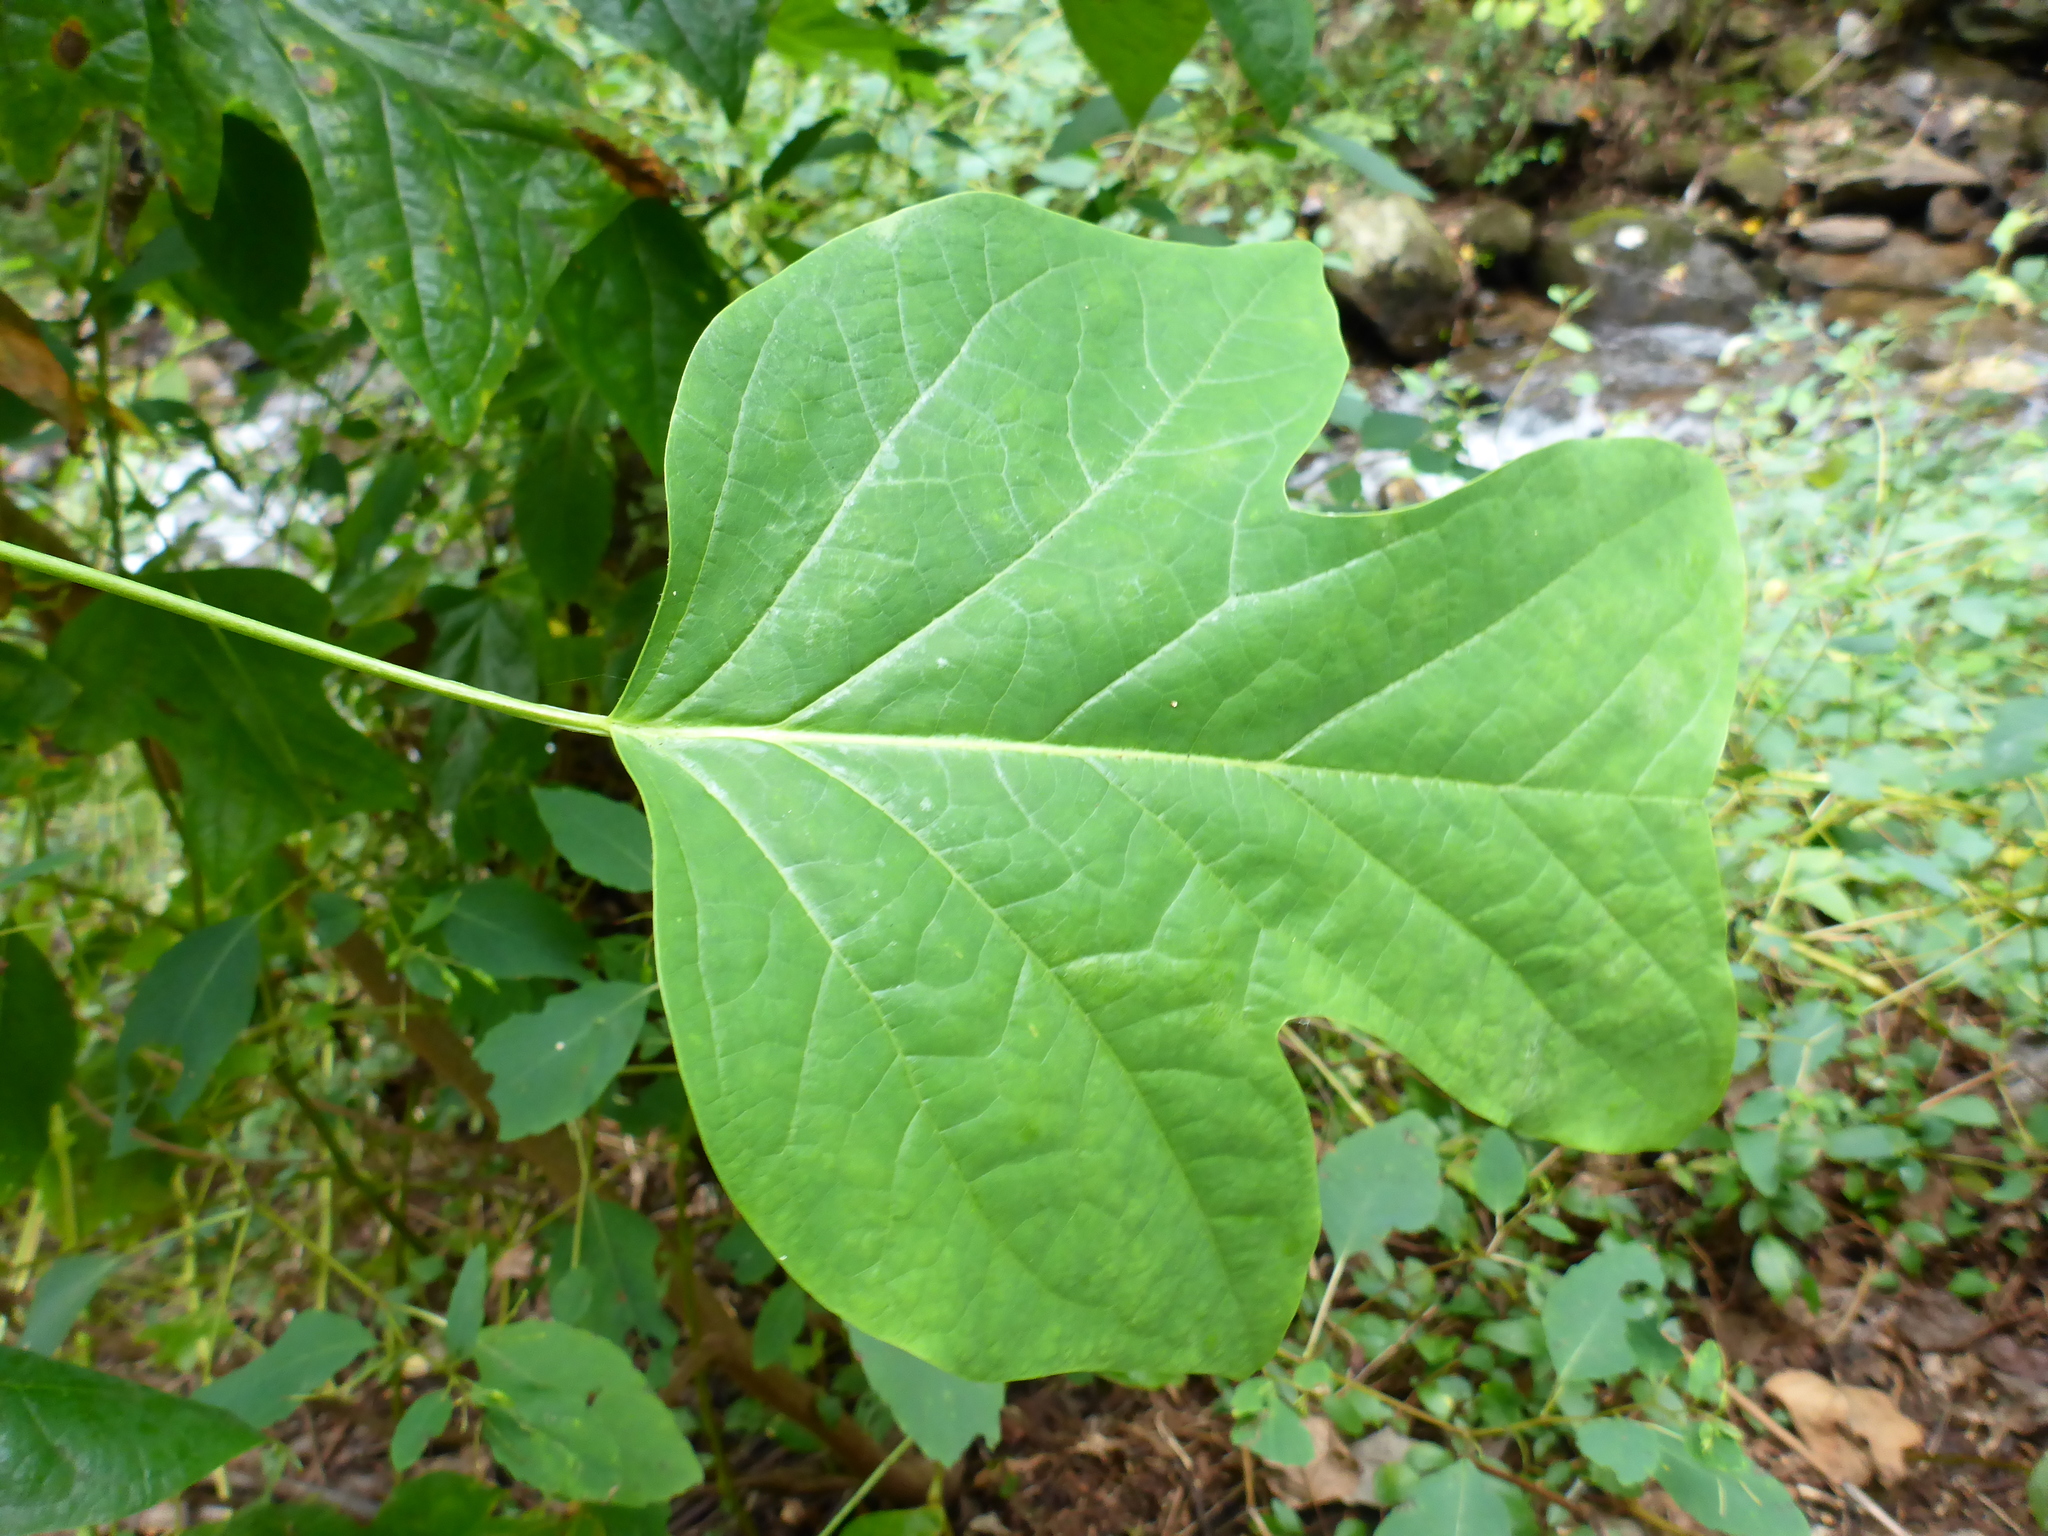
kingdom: Plantae
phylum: Tracheophyta
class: Magnoliopsida
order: Magnoliales
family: Magnoliaceae
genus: Liriodendron
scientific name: Liriodendron tulipifera
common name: Tulip tree
